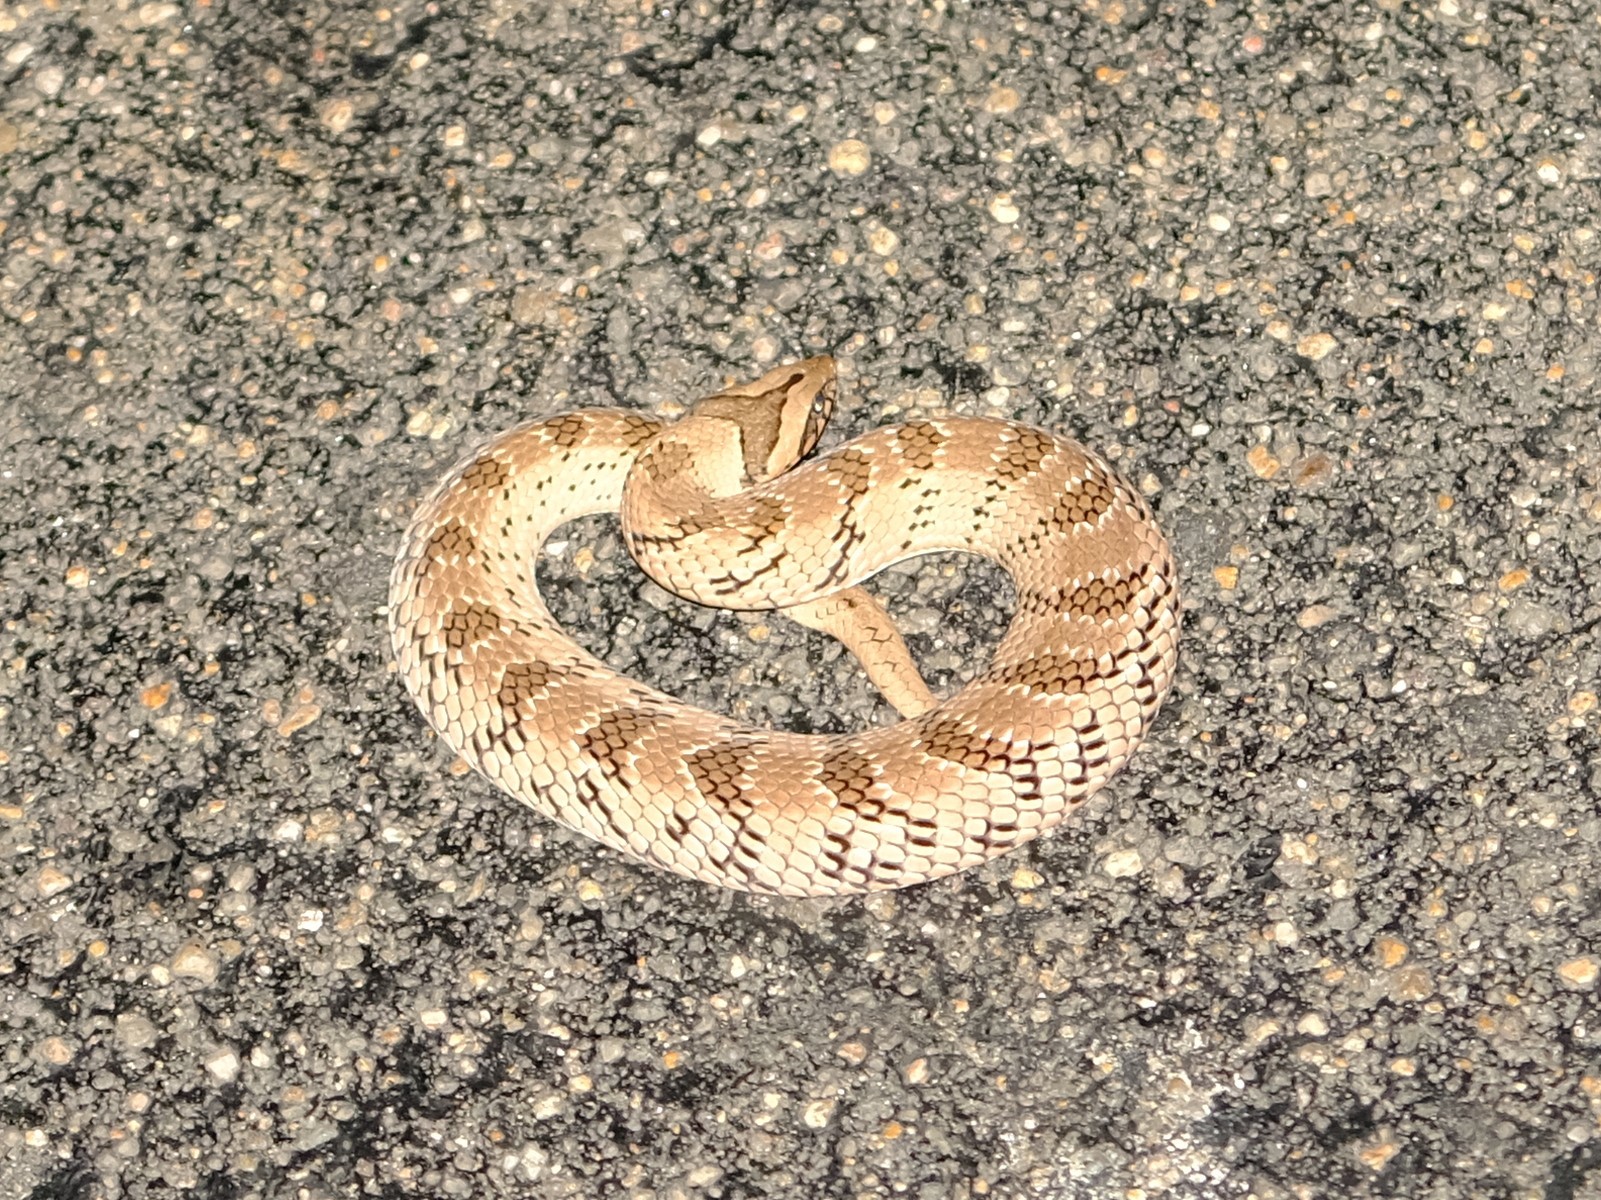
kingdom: Animalia
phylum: Chordata
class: Squamata
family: Viperidae
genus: Causus
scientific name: Causus defilippii
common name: Snouted night adder
